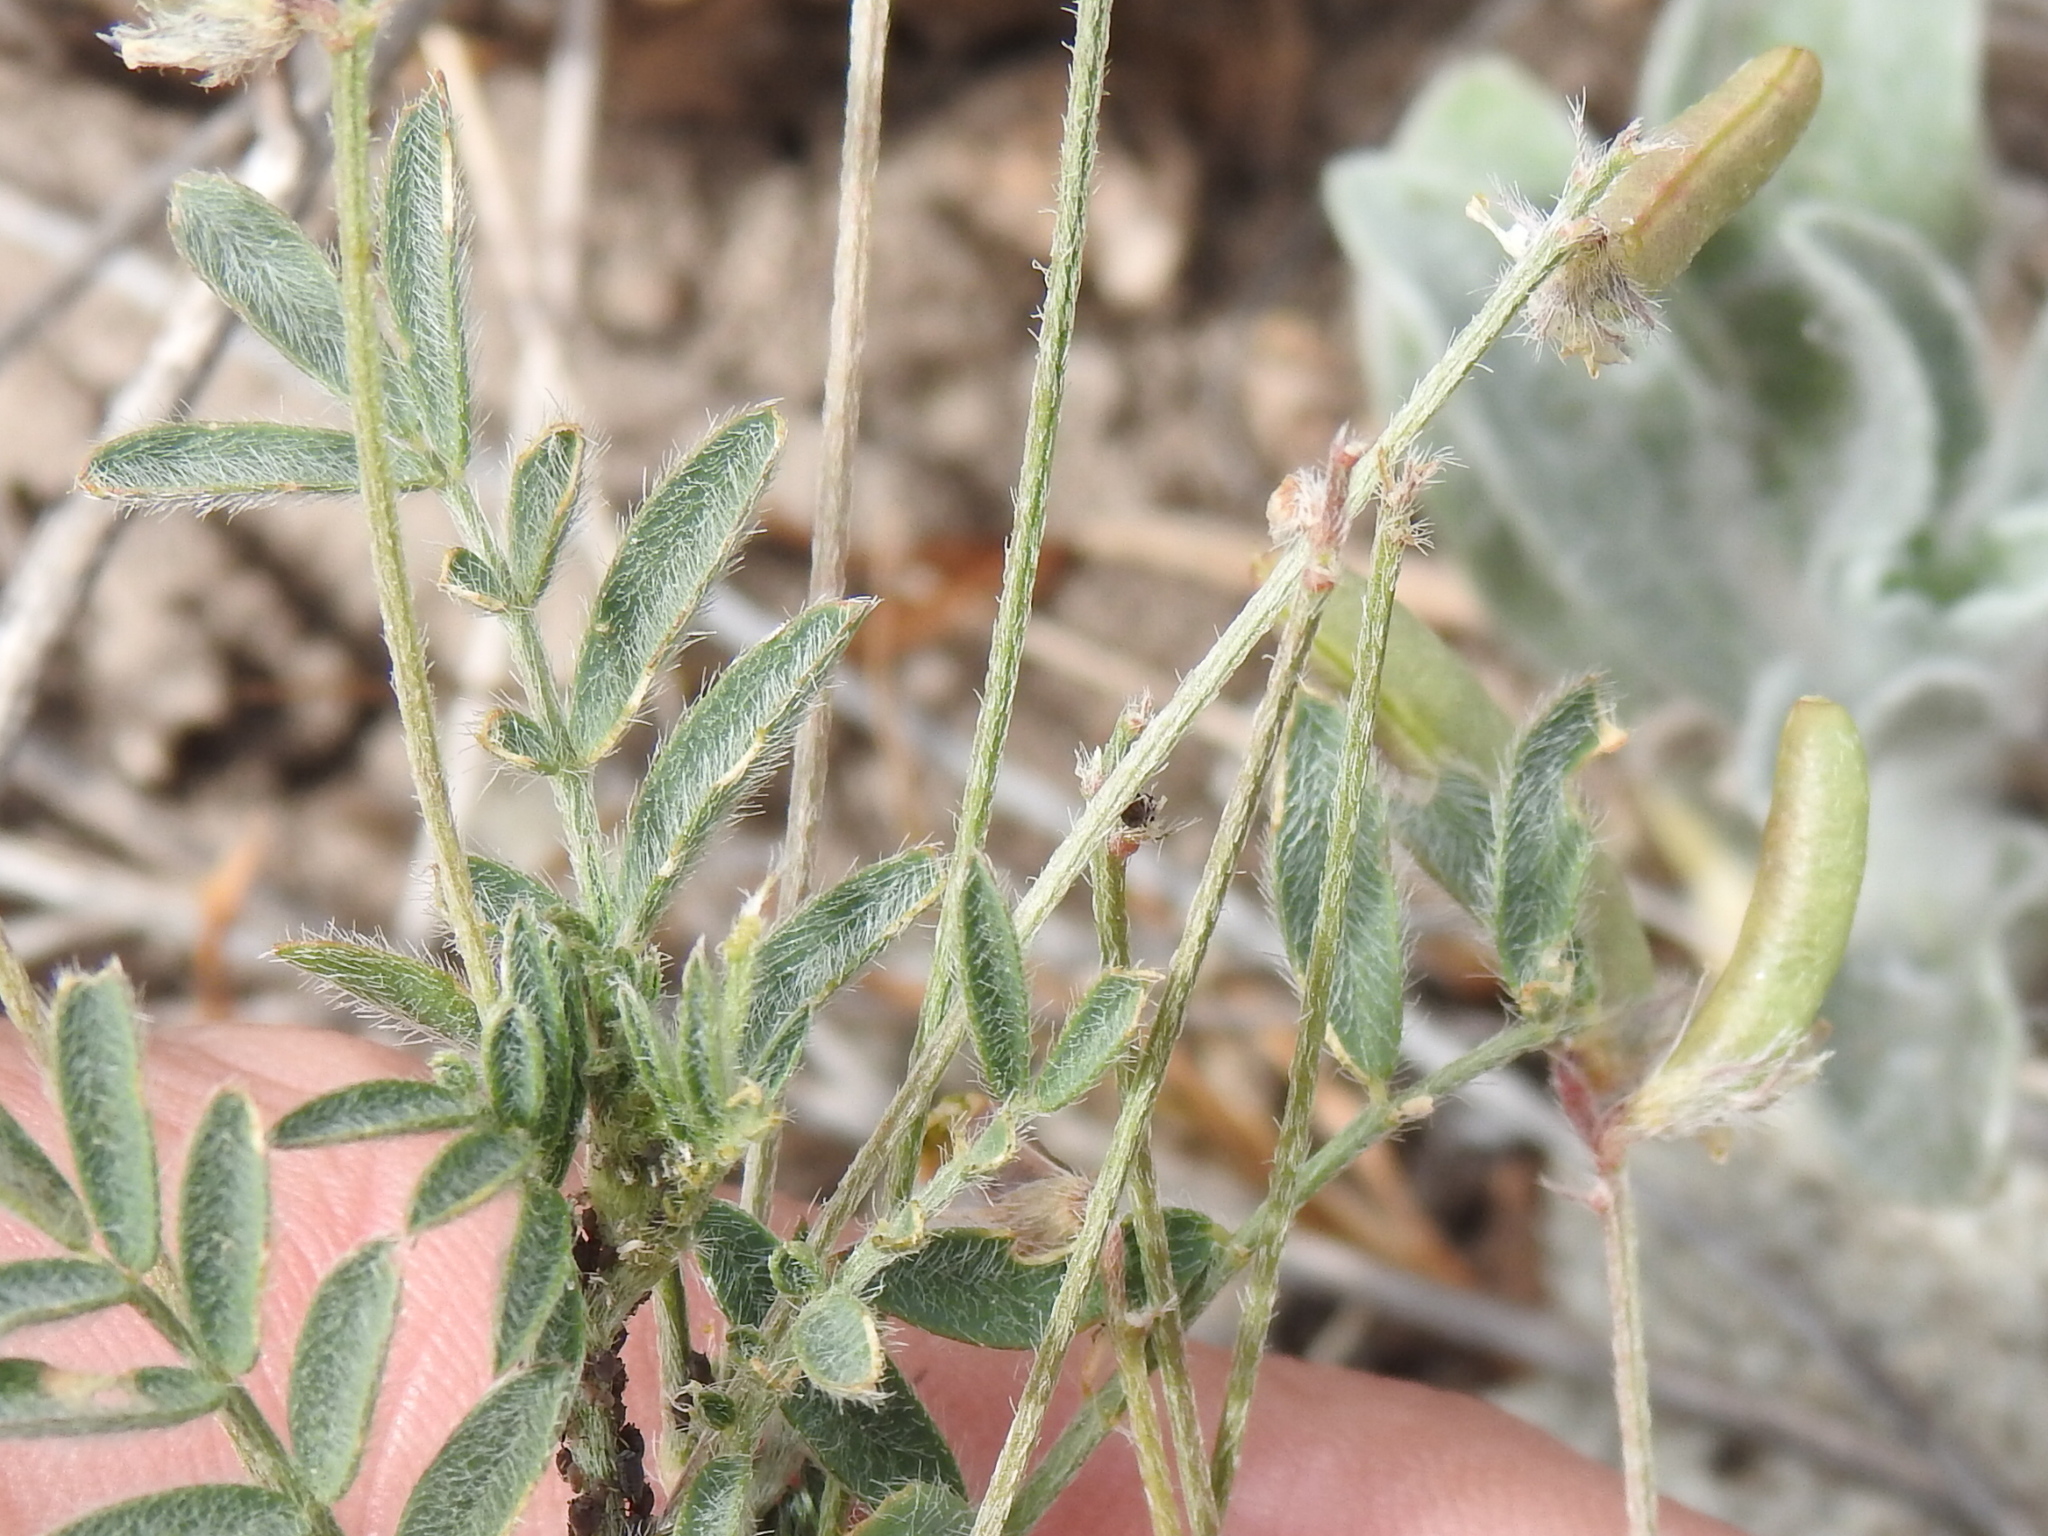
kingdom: Plantae
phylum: Tracheophyta
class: Magnoliopsida
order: Fabales
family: Fabaceae
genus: Astragalus
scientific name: Astragalus nuttallianus
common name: Smallflowered milkvetch
